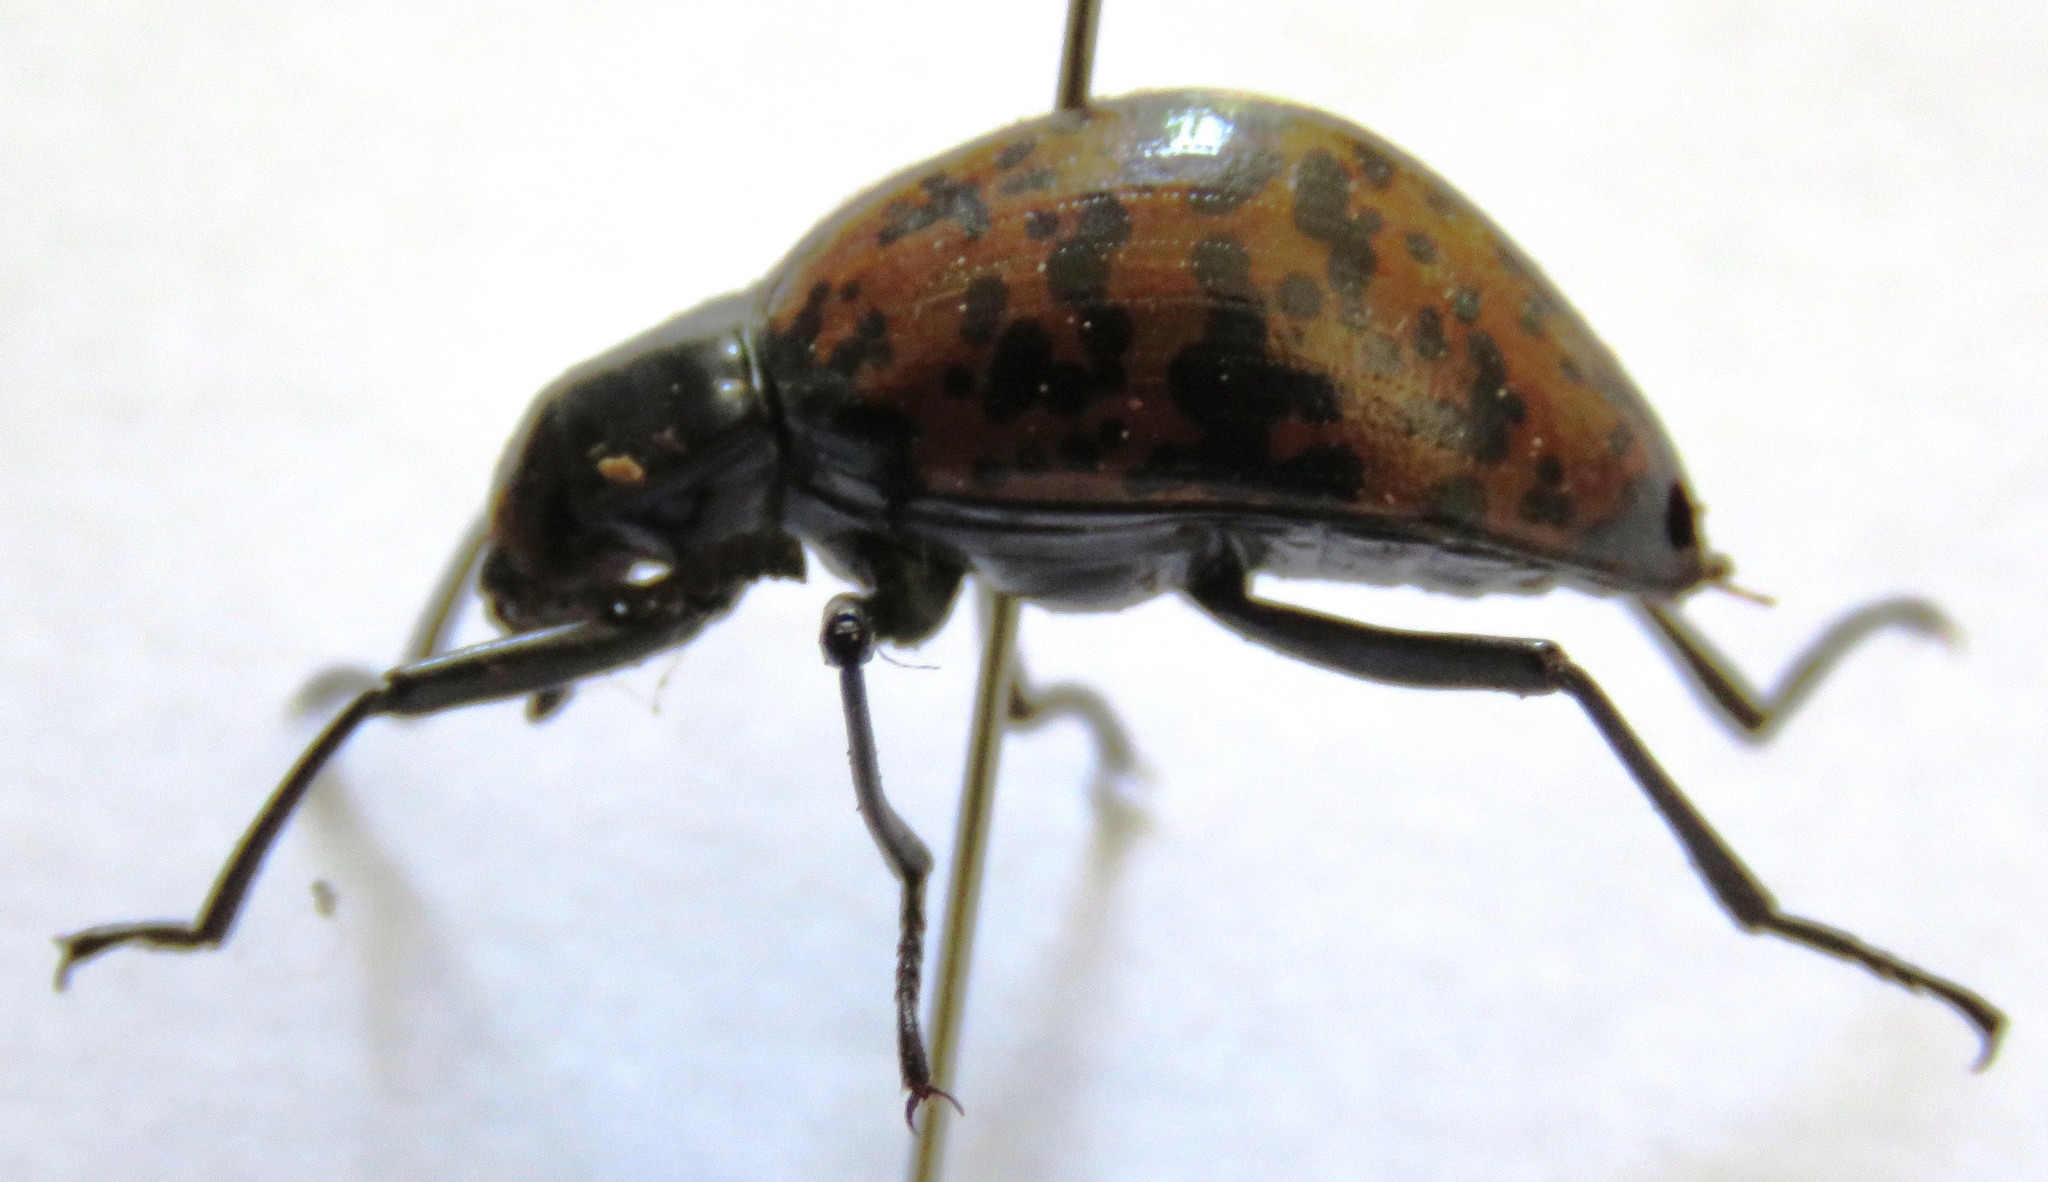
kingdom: Animalia
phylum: Arthropoda
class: Insecta
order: Coleoptera
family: Tenebrionidae
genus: Cuphotes
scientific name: Cuphotes nigromaculatus
